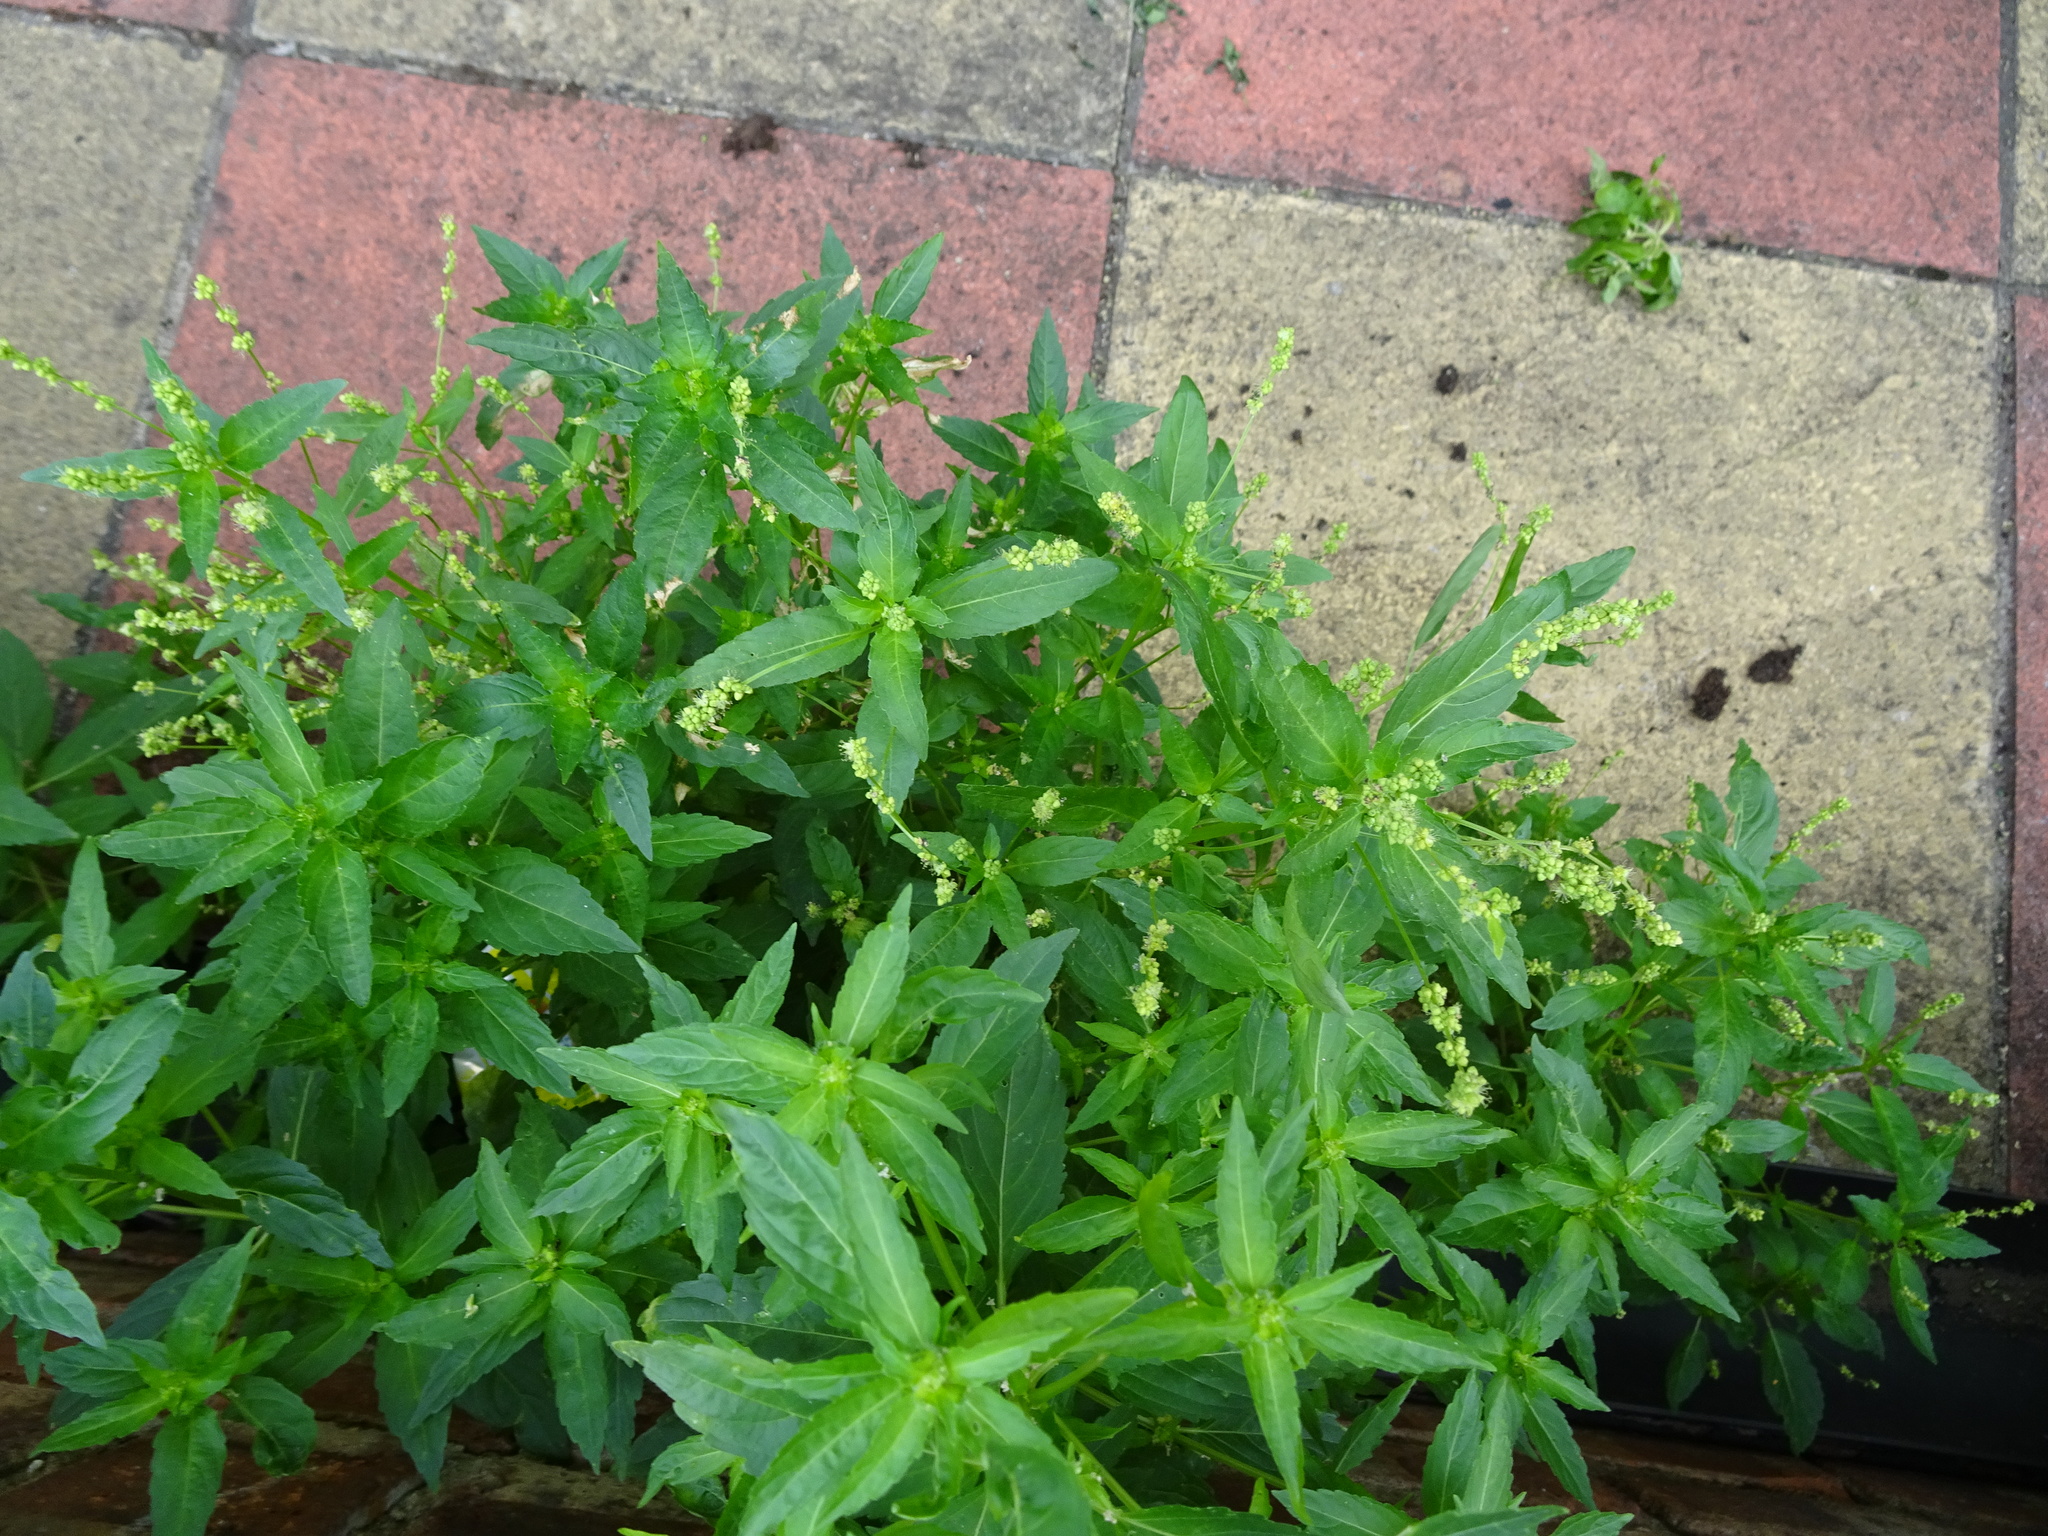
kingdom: Plantae
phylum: Tracheophyta
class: Magnoliopsida
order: Malpighiales
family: Euphorbiaceae
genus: Mercurialis
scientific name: Mercurialis annua
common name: Annual mercury
